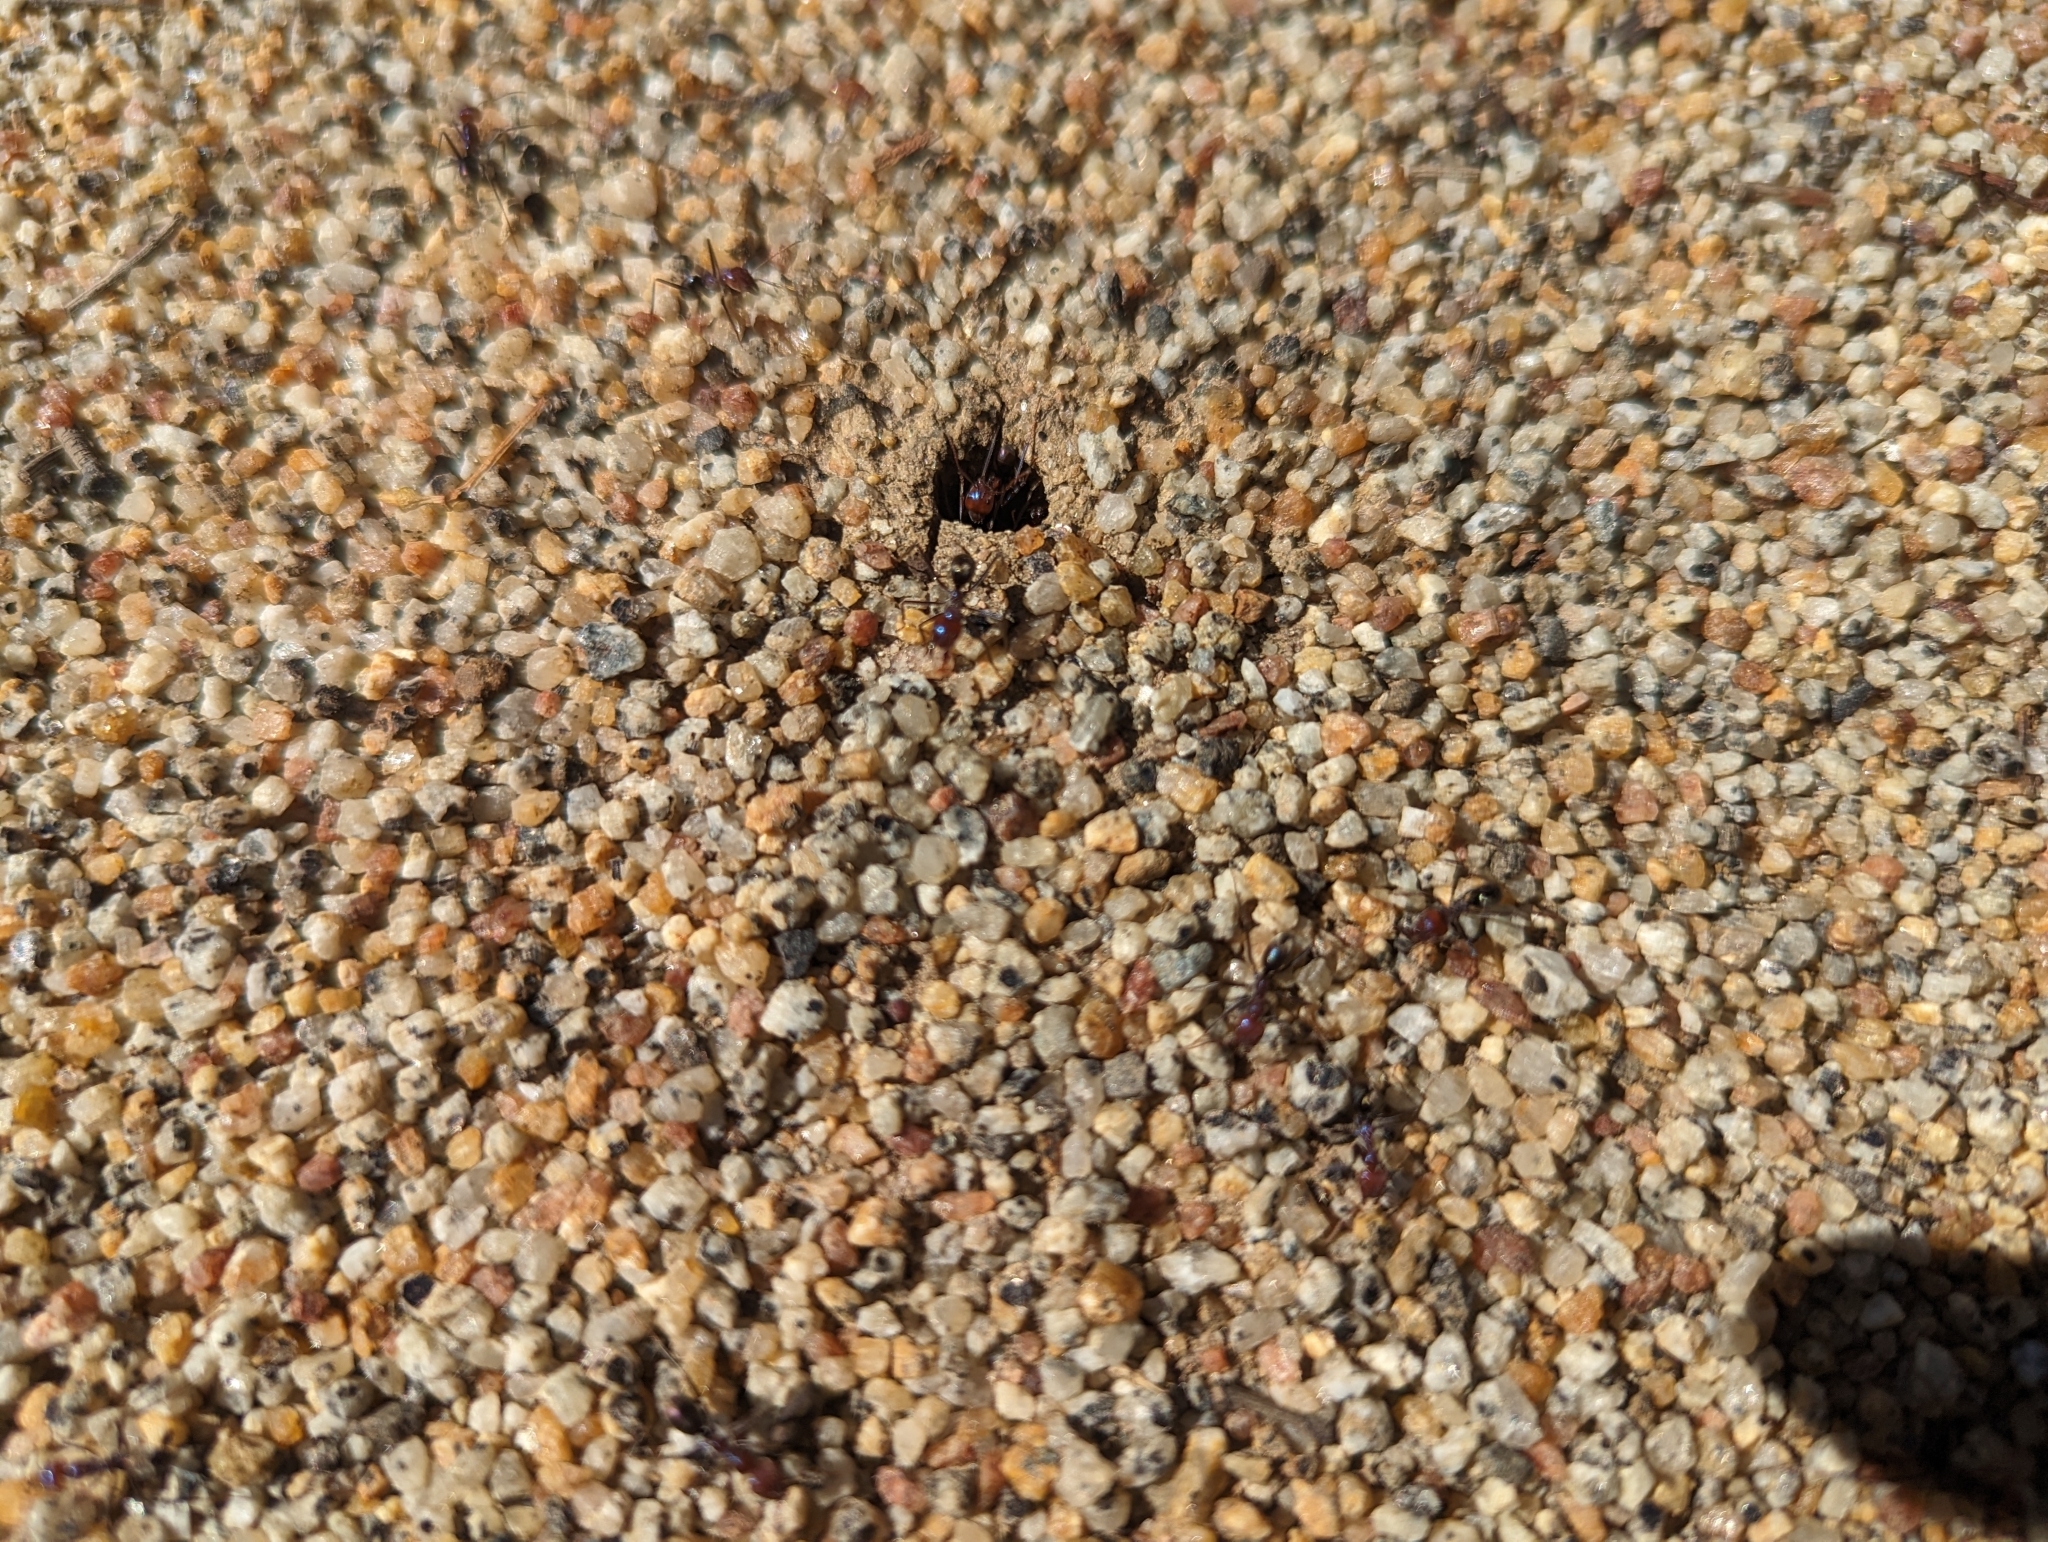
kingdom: Animalia
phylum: Arthropoda
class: Insecta
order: Hymenoptera
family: Formicidae
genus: Iridomyrmex
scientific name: Iridomyrmex purpureus
